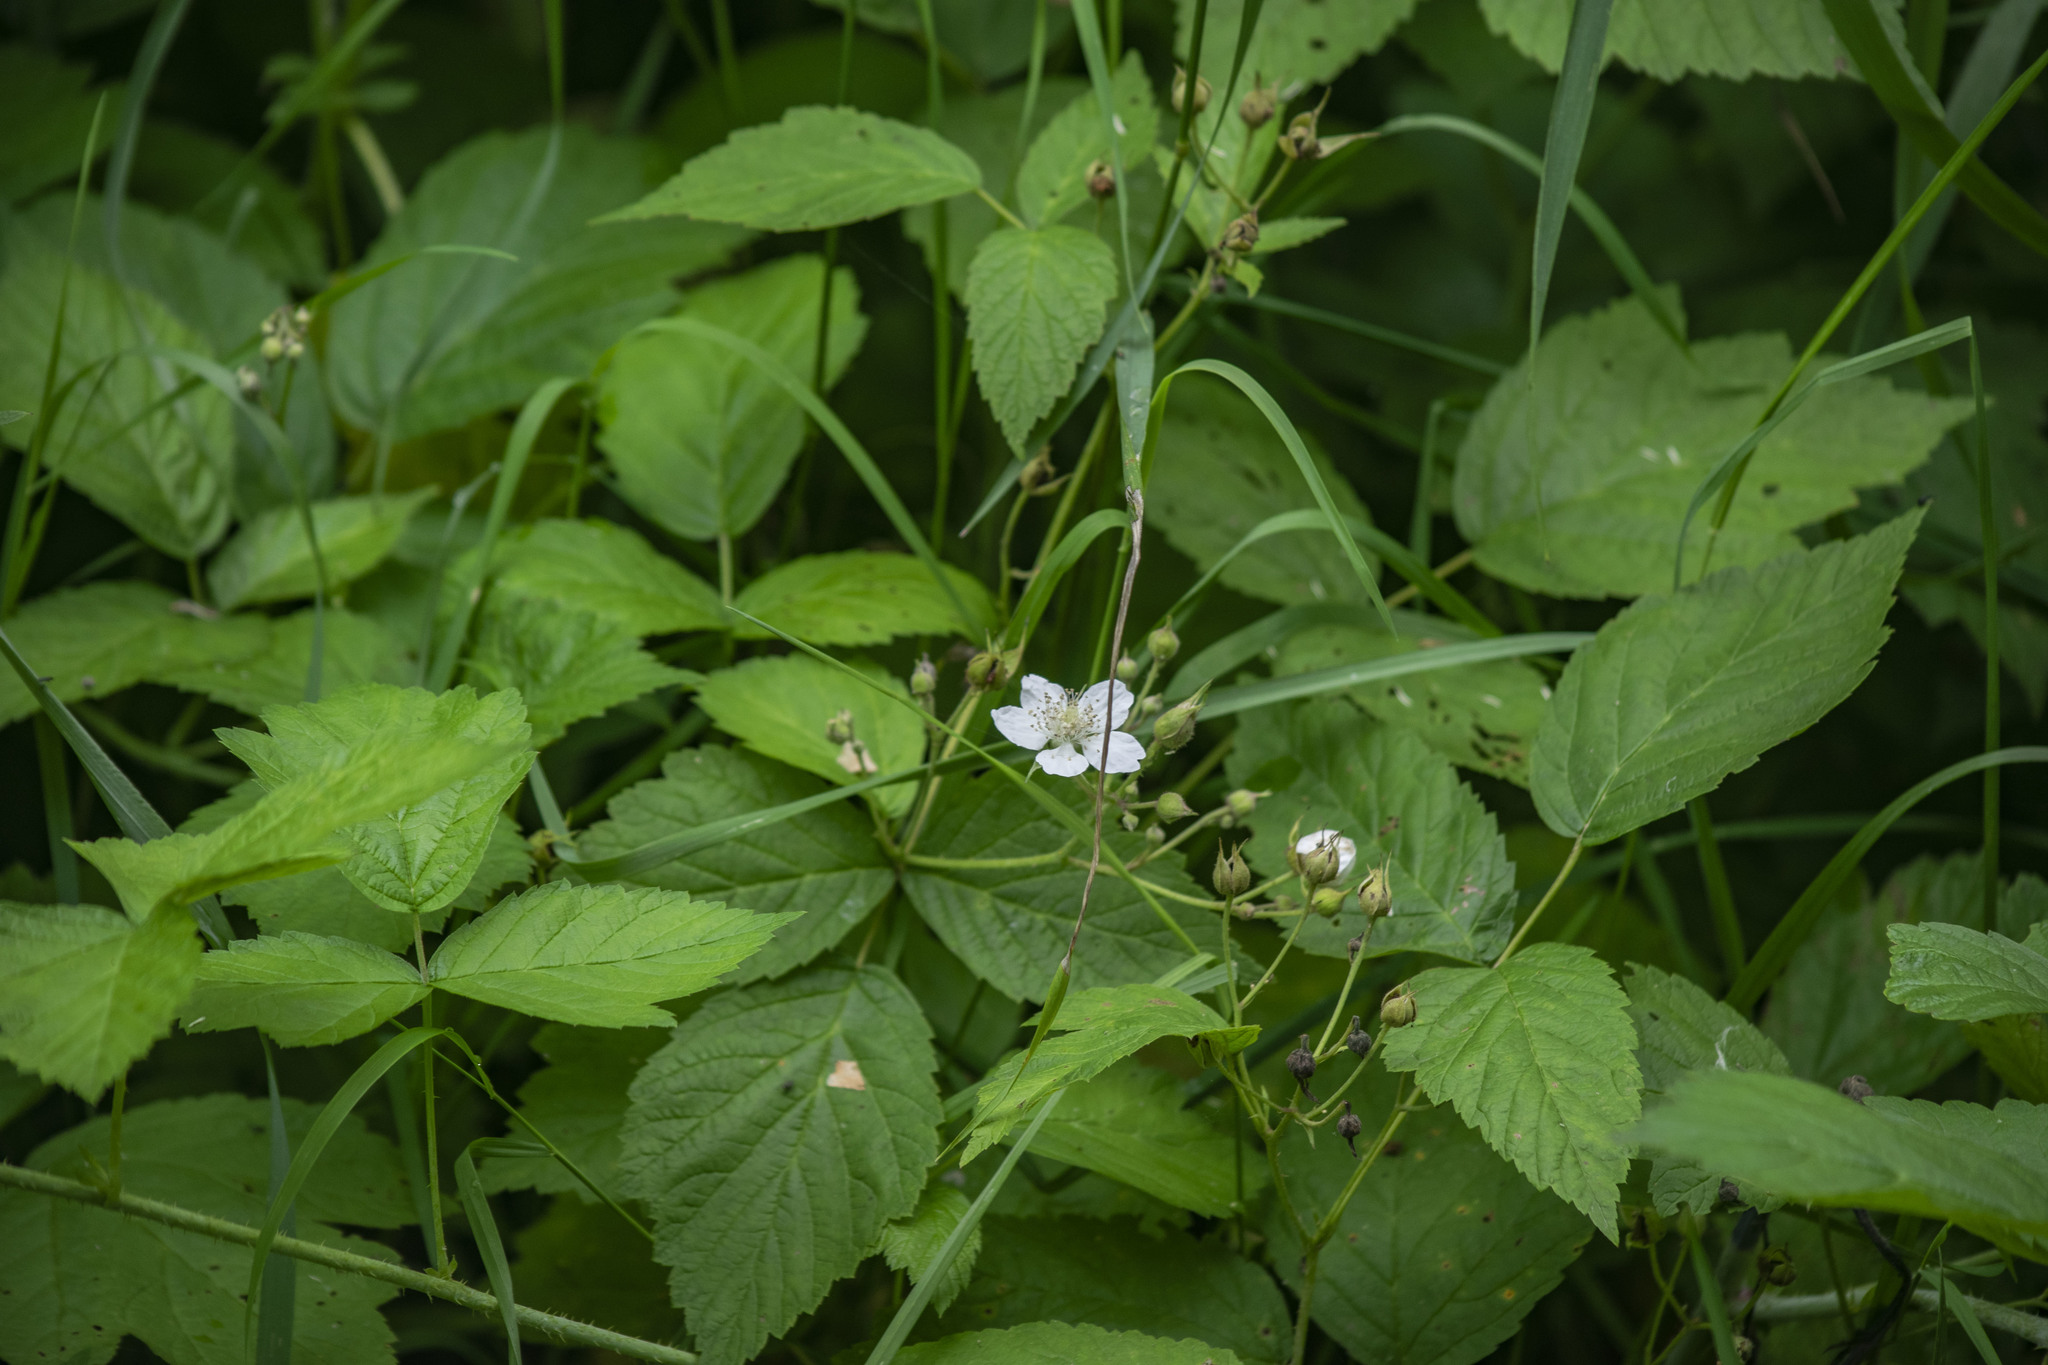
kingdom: Plantae
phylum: Tracheophyta
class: Magnoliopsida
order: Rosales
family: Rosaceae
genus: Rubus
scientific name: Rubus caesius
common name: Dewberry
